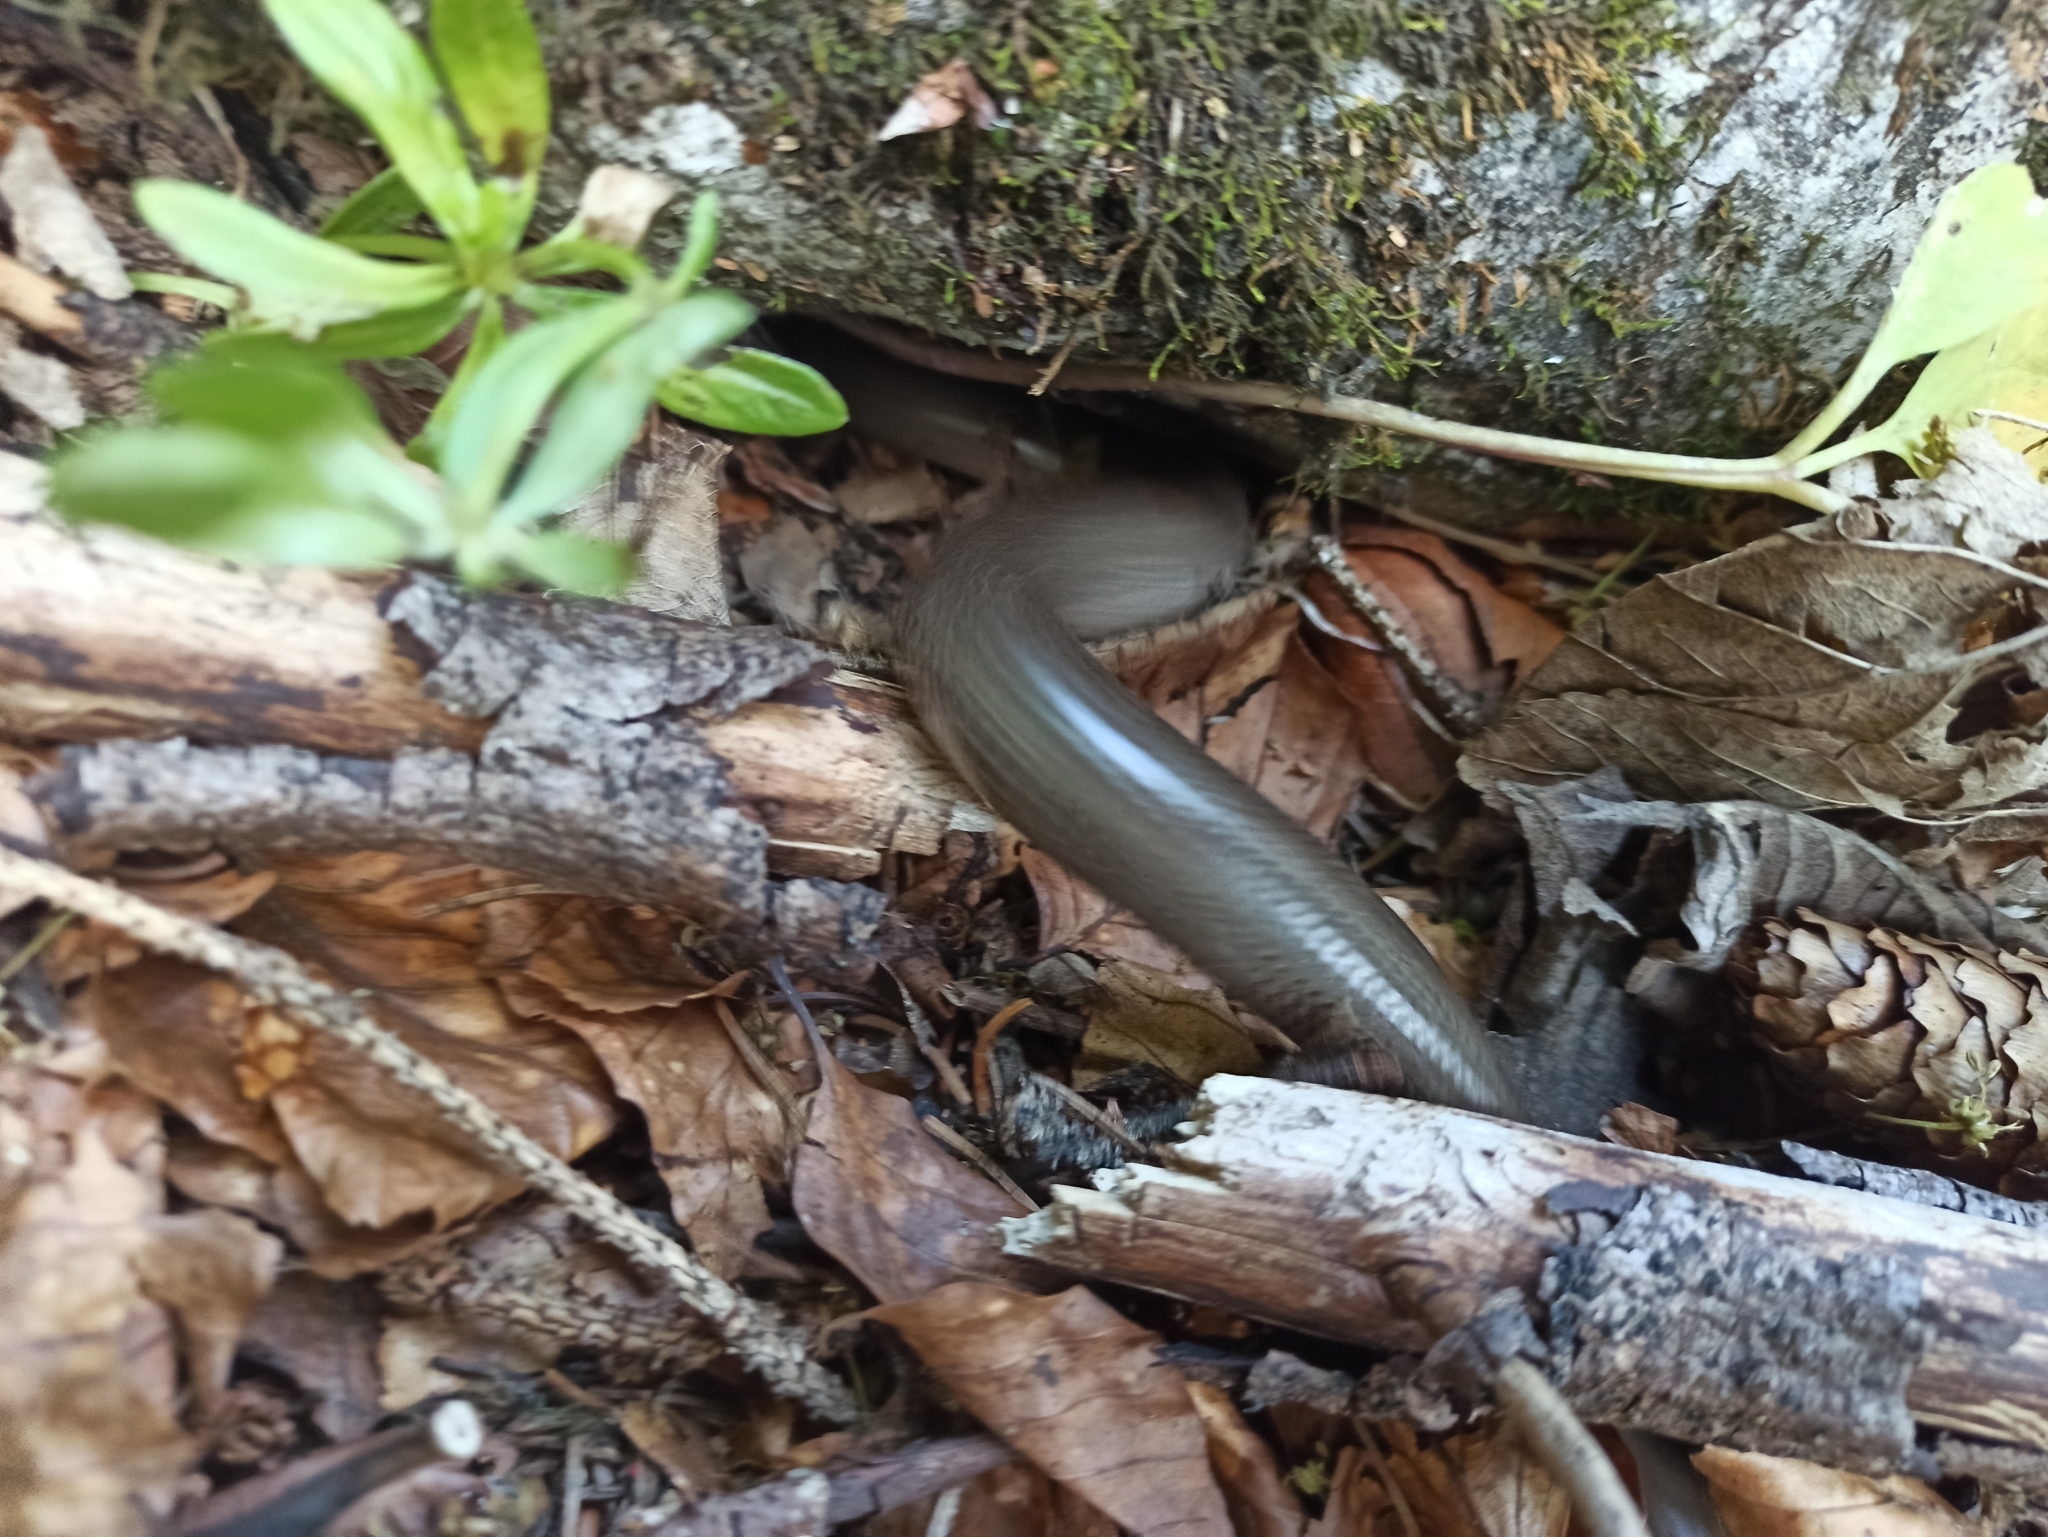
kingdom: Animalia
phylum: Chordata
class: Squamata
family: Anguidae
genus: Anguis
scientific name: Anguis fragilis
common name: Slow worm
